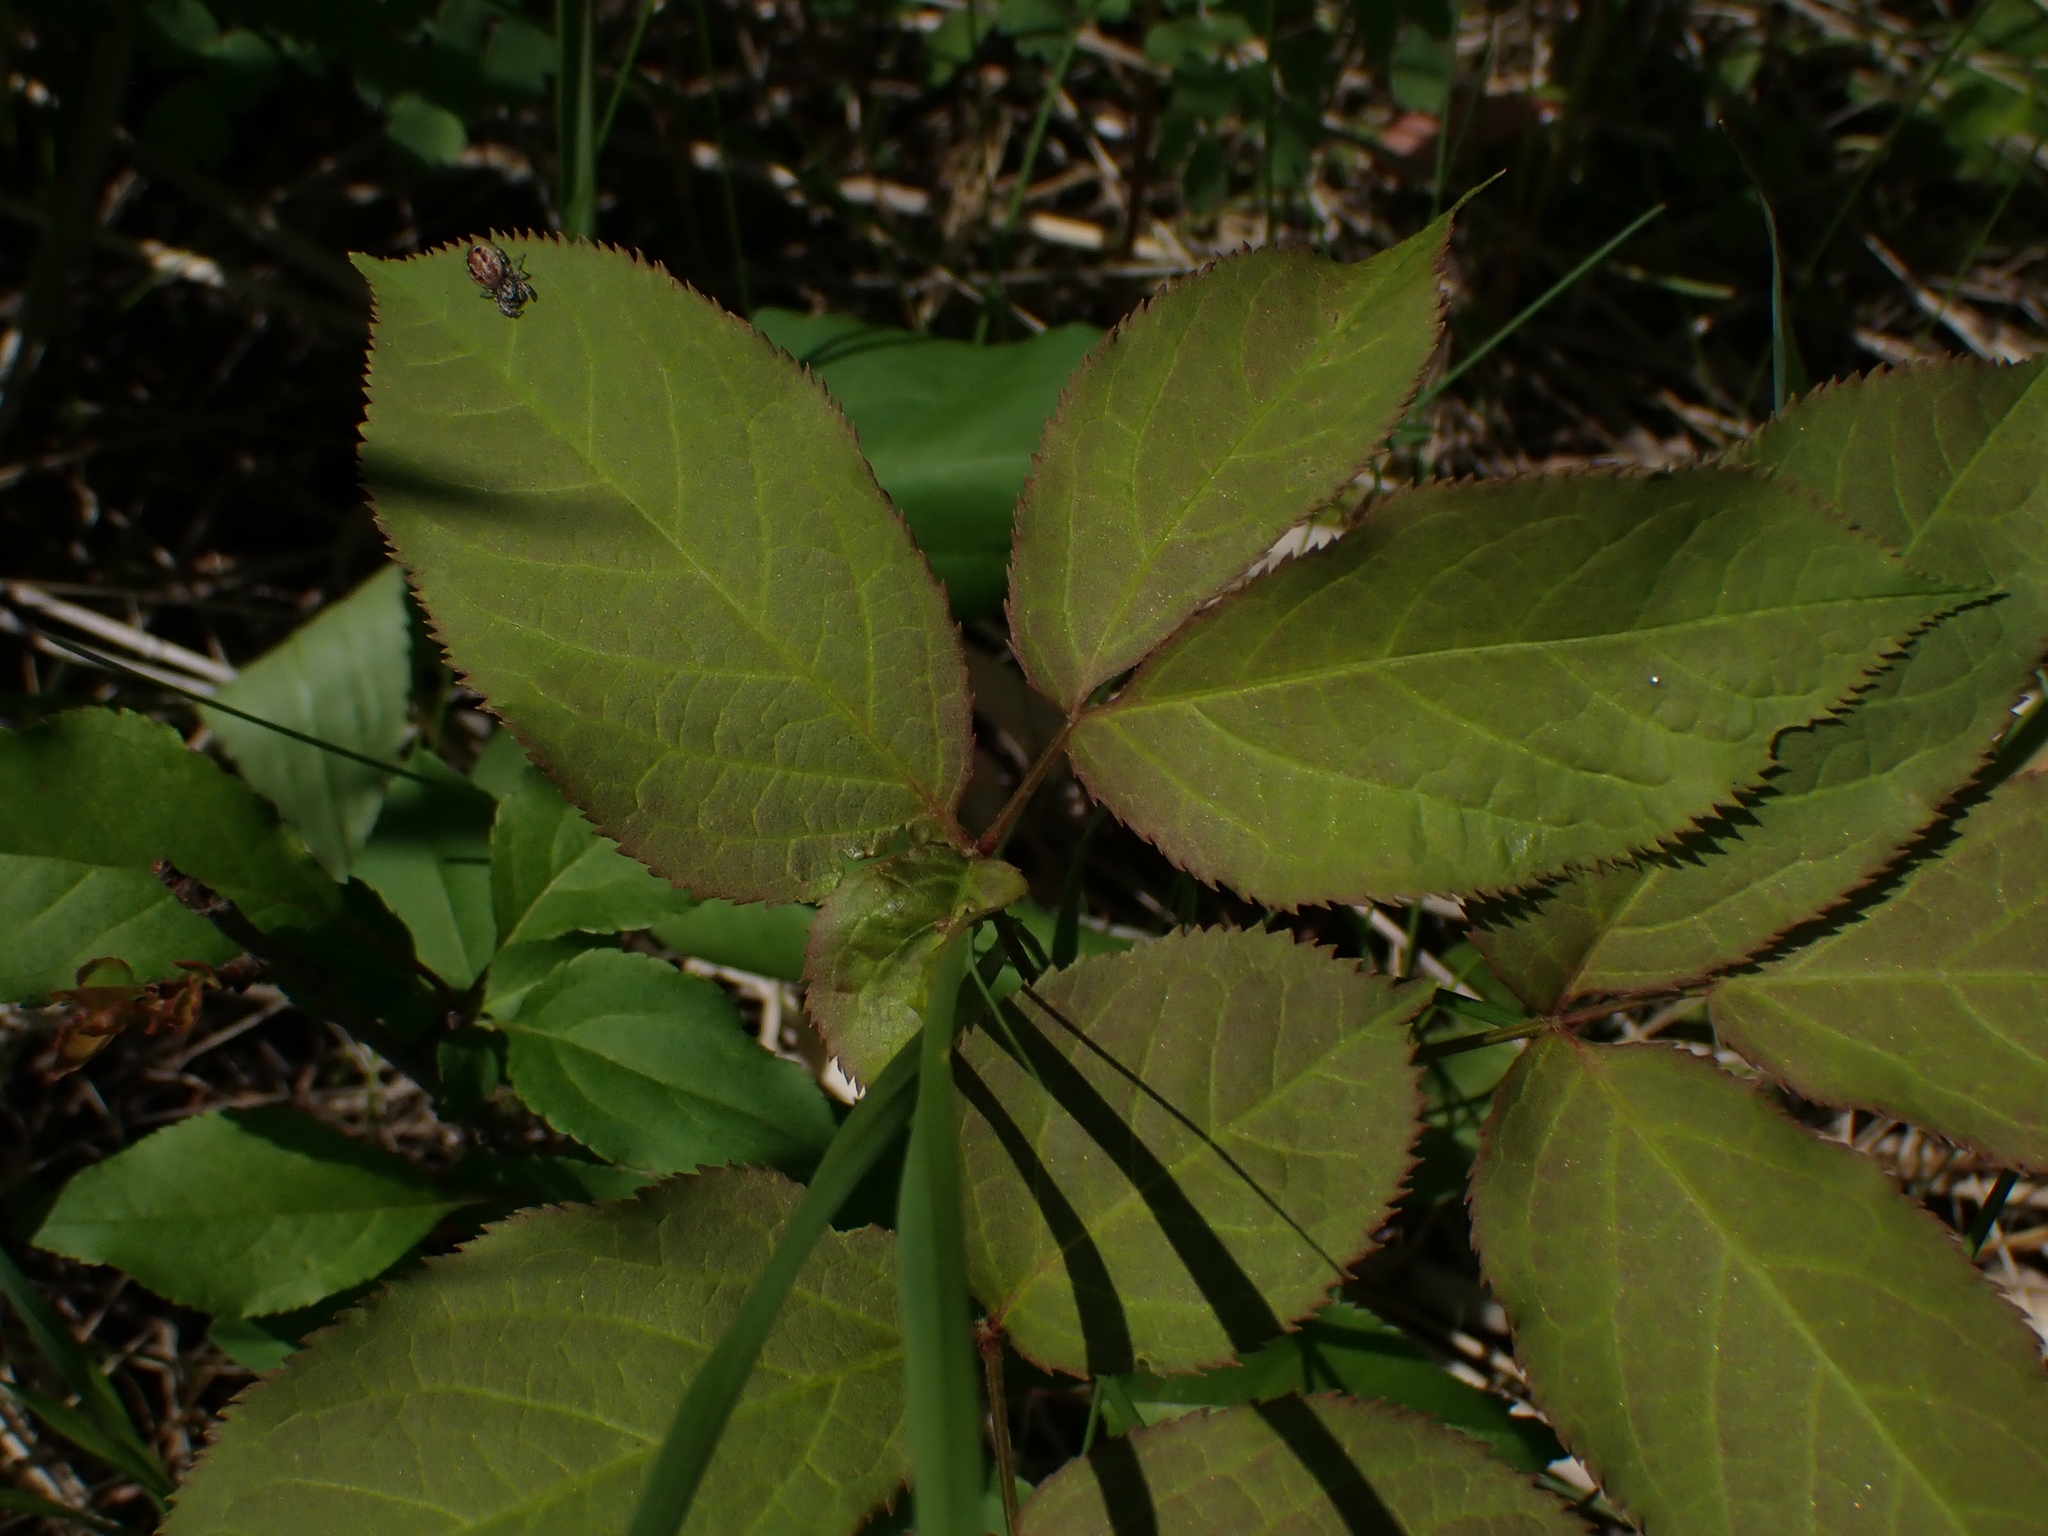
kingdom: Plantae
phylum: Tracheophyta
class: Magnoliopsida
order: Apiales
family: Araliaceae
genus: Aralia
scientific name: Aralia nudicaulis
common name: Wild sarsaparilla
